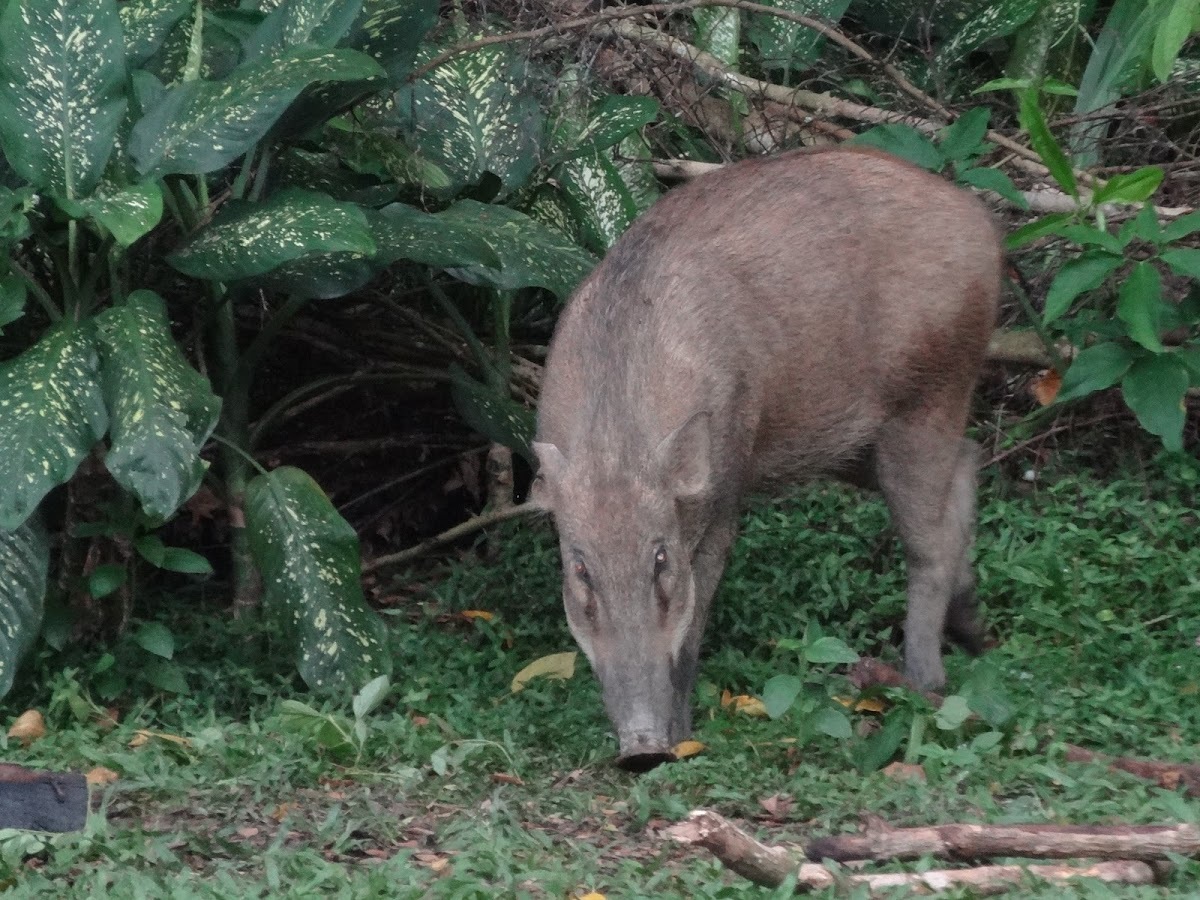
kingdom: Animalia
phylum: Chordata
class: Mammalia
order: Artiodactyla
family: Suidae
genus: Sus
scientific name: Sus scrofa
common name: Wild boar
